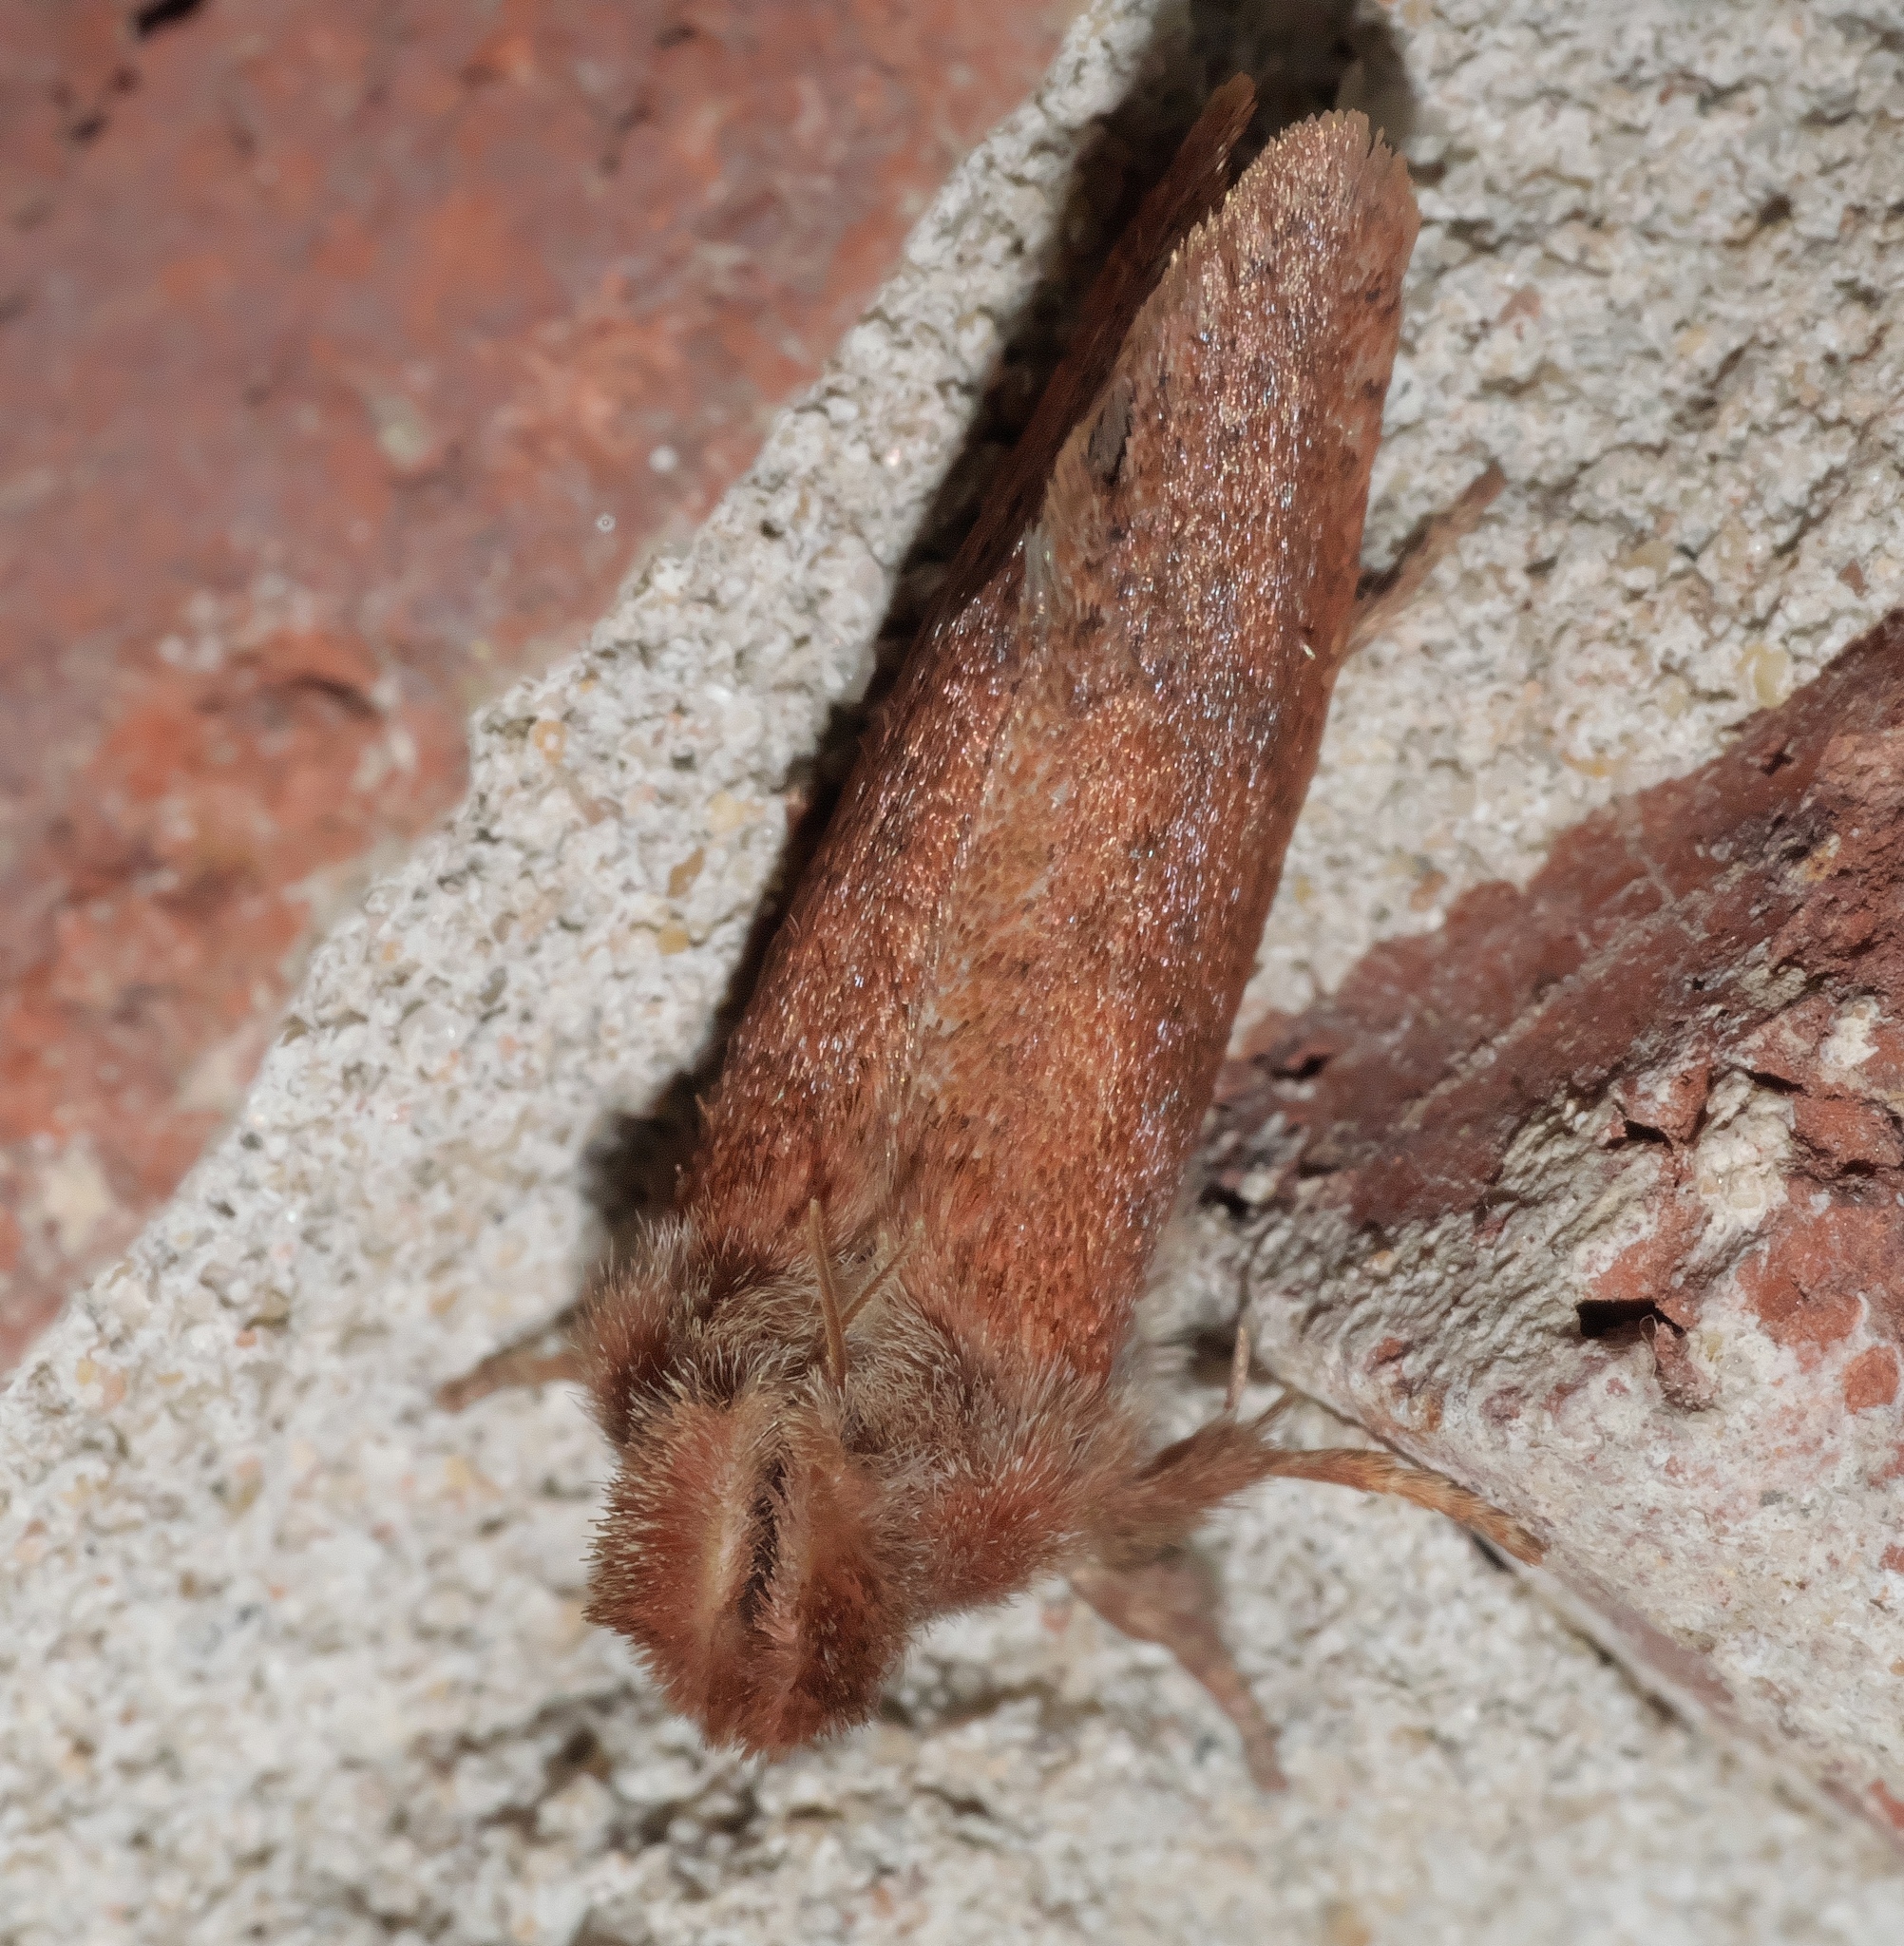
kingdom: Animalia
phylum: Arthropoda
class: Insecta
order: Lepidoptera
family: Tineidae
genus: Acrolophus
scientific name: Acrolophus plumifrontella
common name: Eastern grass tubeworm moth
